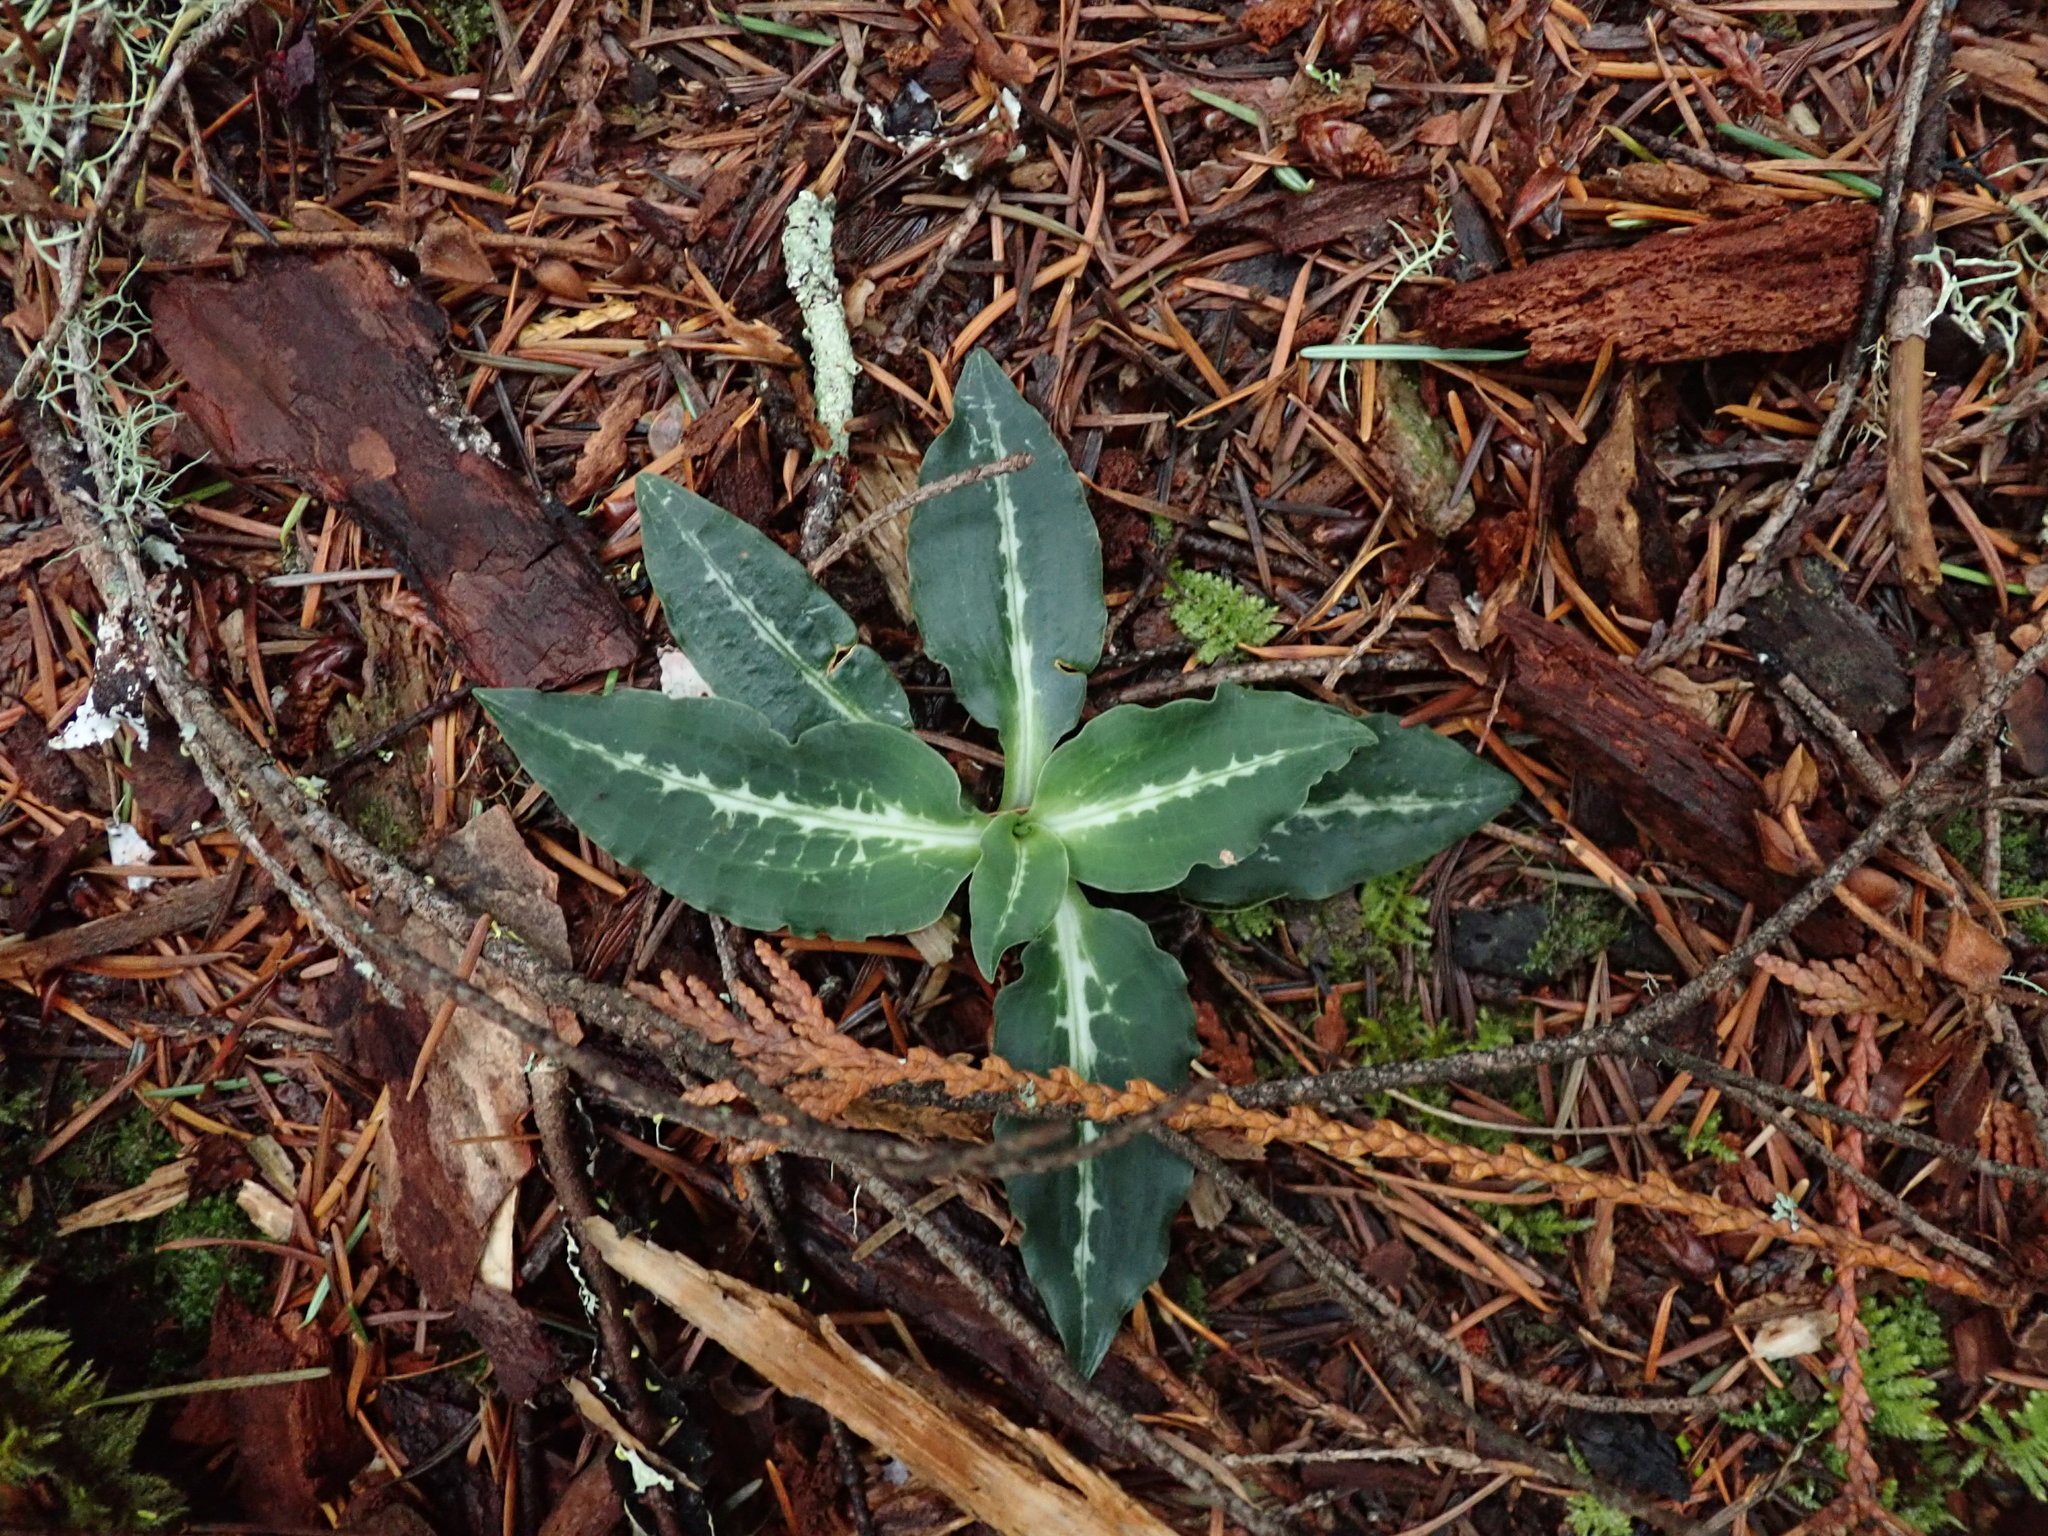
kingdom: Plantae
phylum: Tracheophyta
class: Liliopsida
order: Asparagales
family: Orchidaceae
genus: Goodyera
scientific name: Goodyera oblongifolia
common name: Giant rattlesnake-plantain
